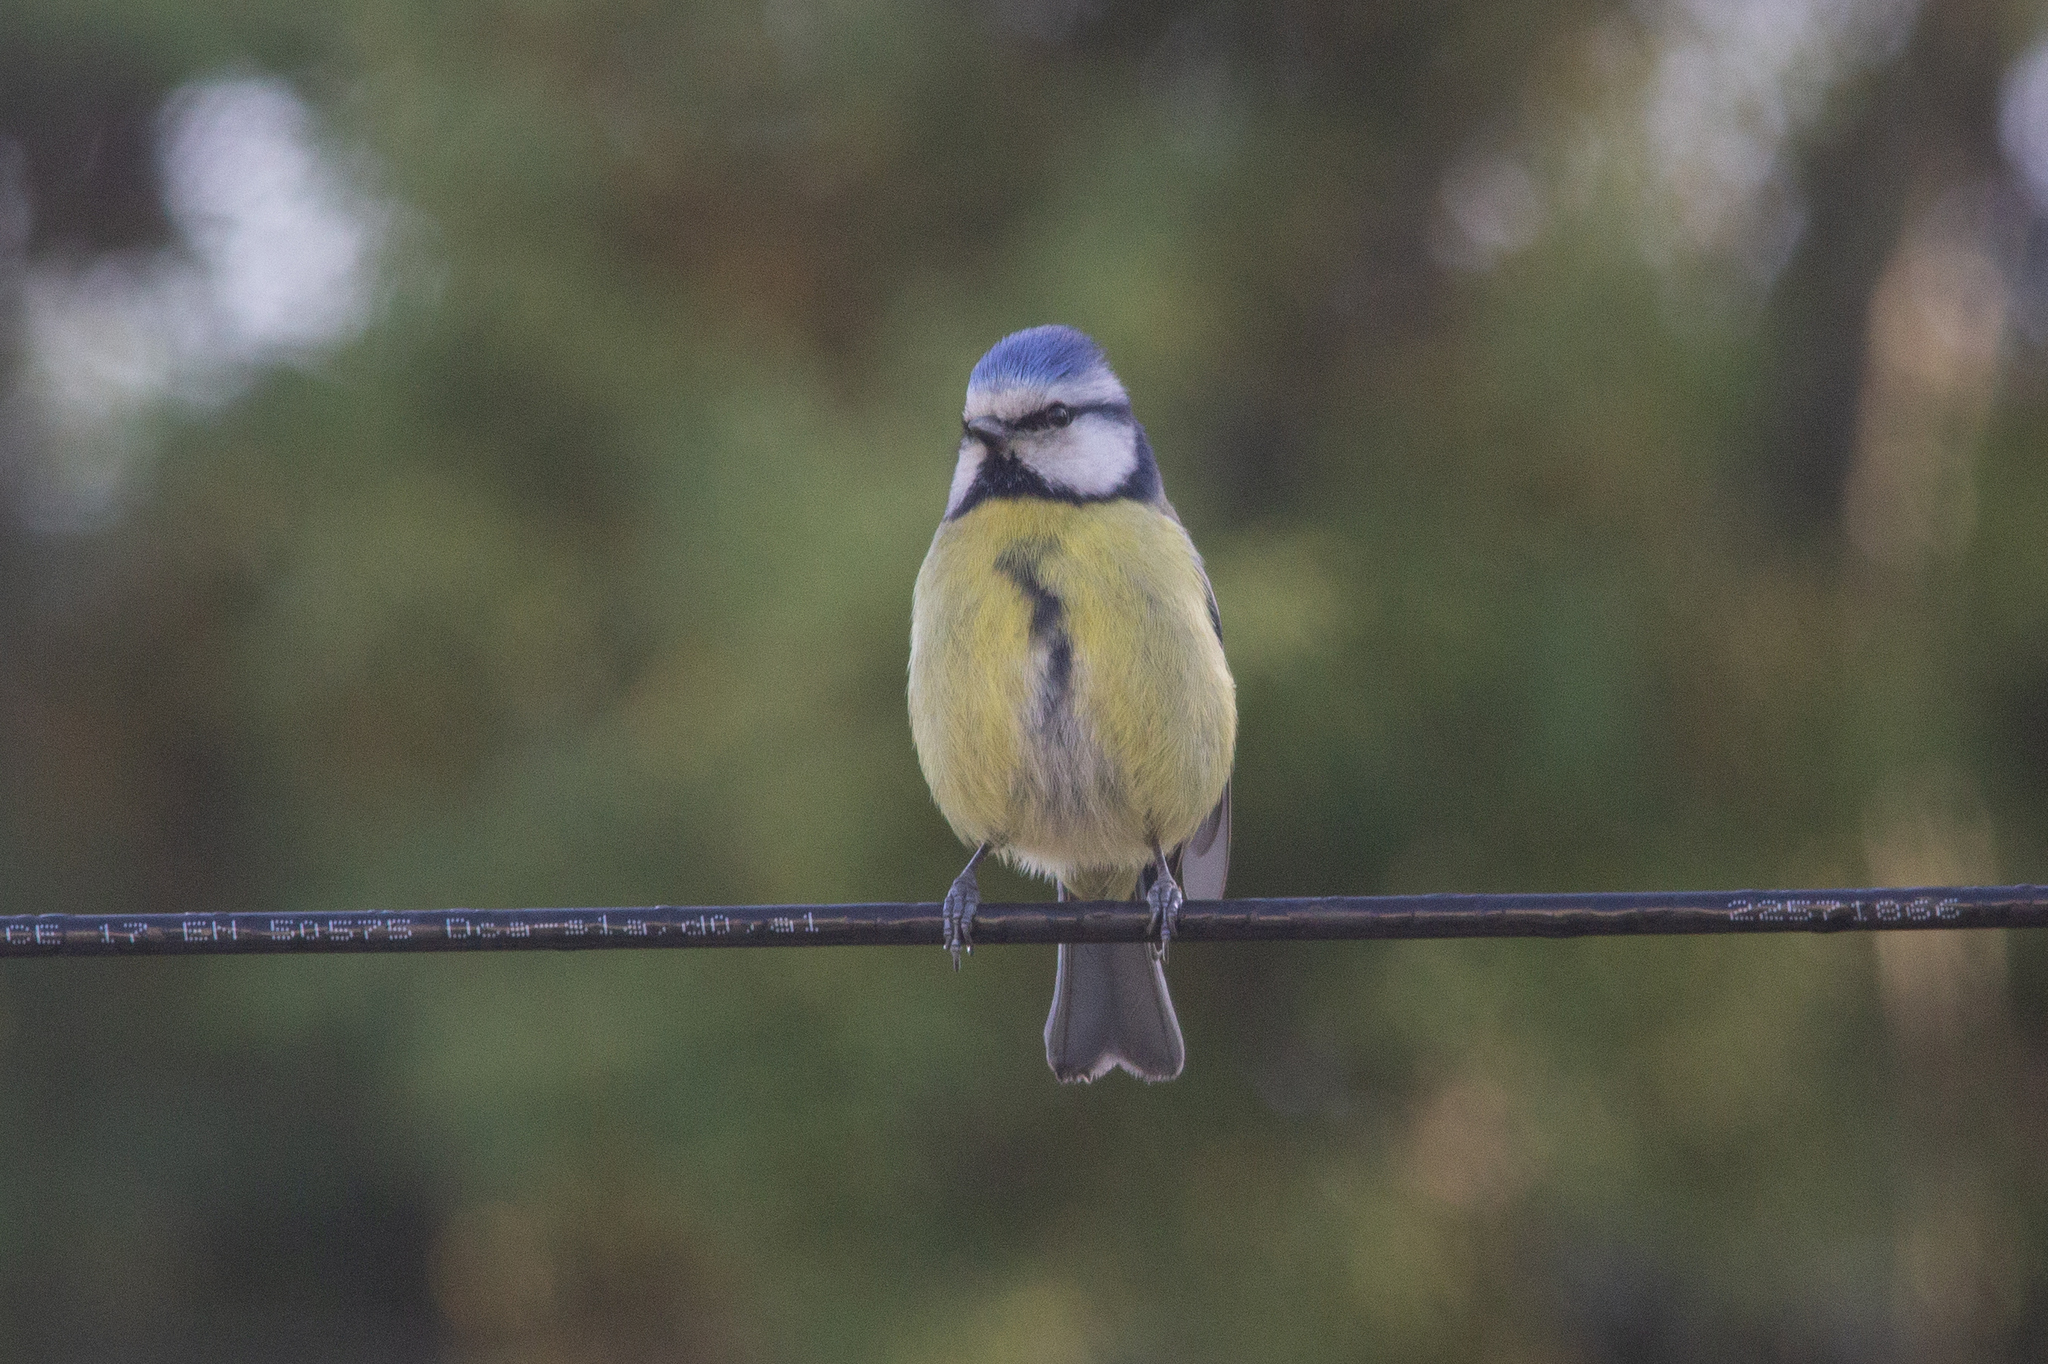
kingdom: Animalia
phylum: Chordata
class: Aves
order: Passeriformes
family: Paridae
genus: Cyanistes
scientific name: Cyanistes caeruleus
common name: Eurasian blue tit
